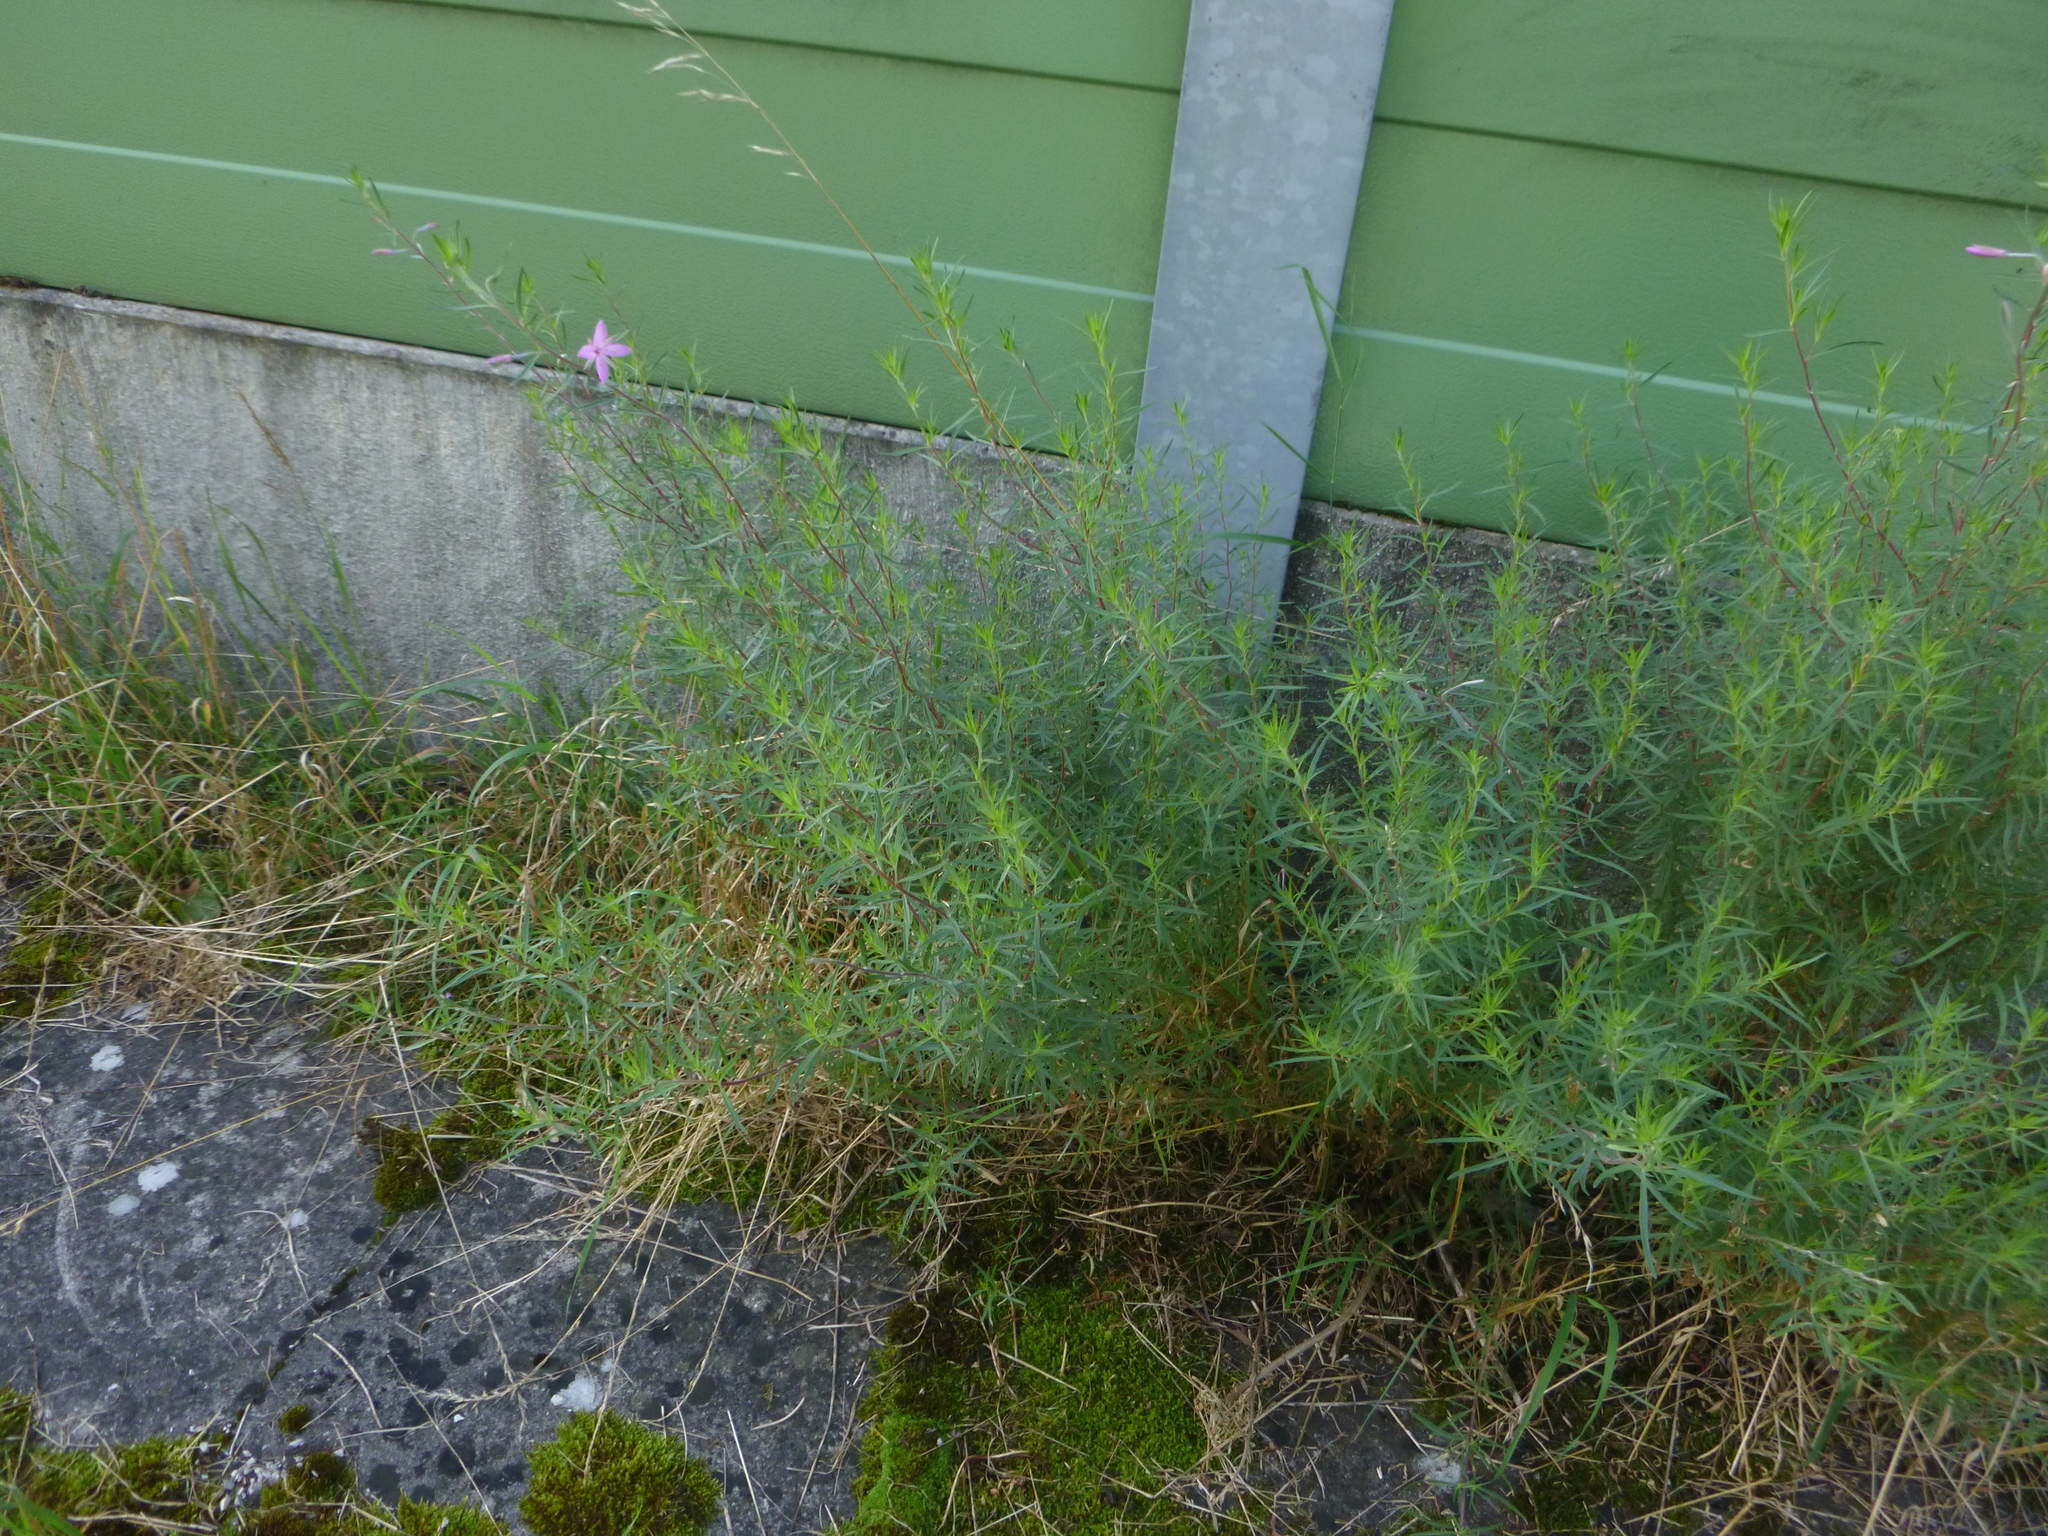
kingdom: Plantae
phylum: Tracheophyta
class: Magnoliopsida
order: Myrtales
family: Onagraceae
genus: Chamaenerion
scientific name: Chamaenerion dodonaei
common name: Rosemary-leaved willowherb
